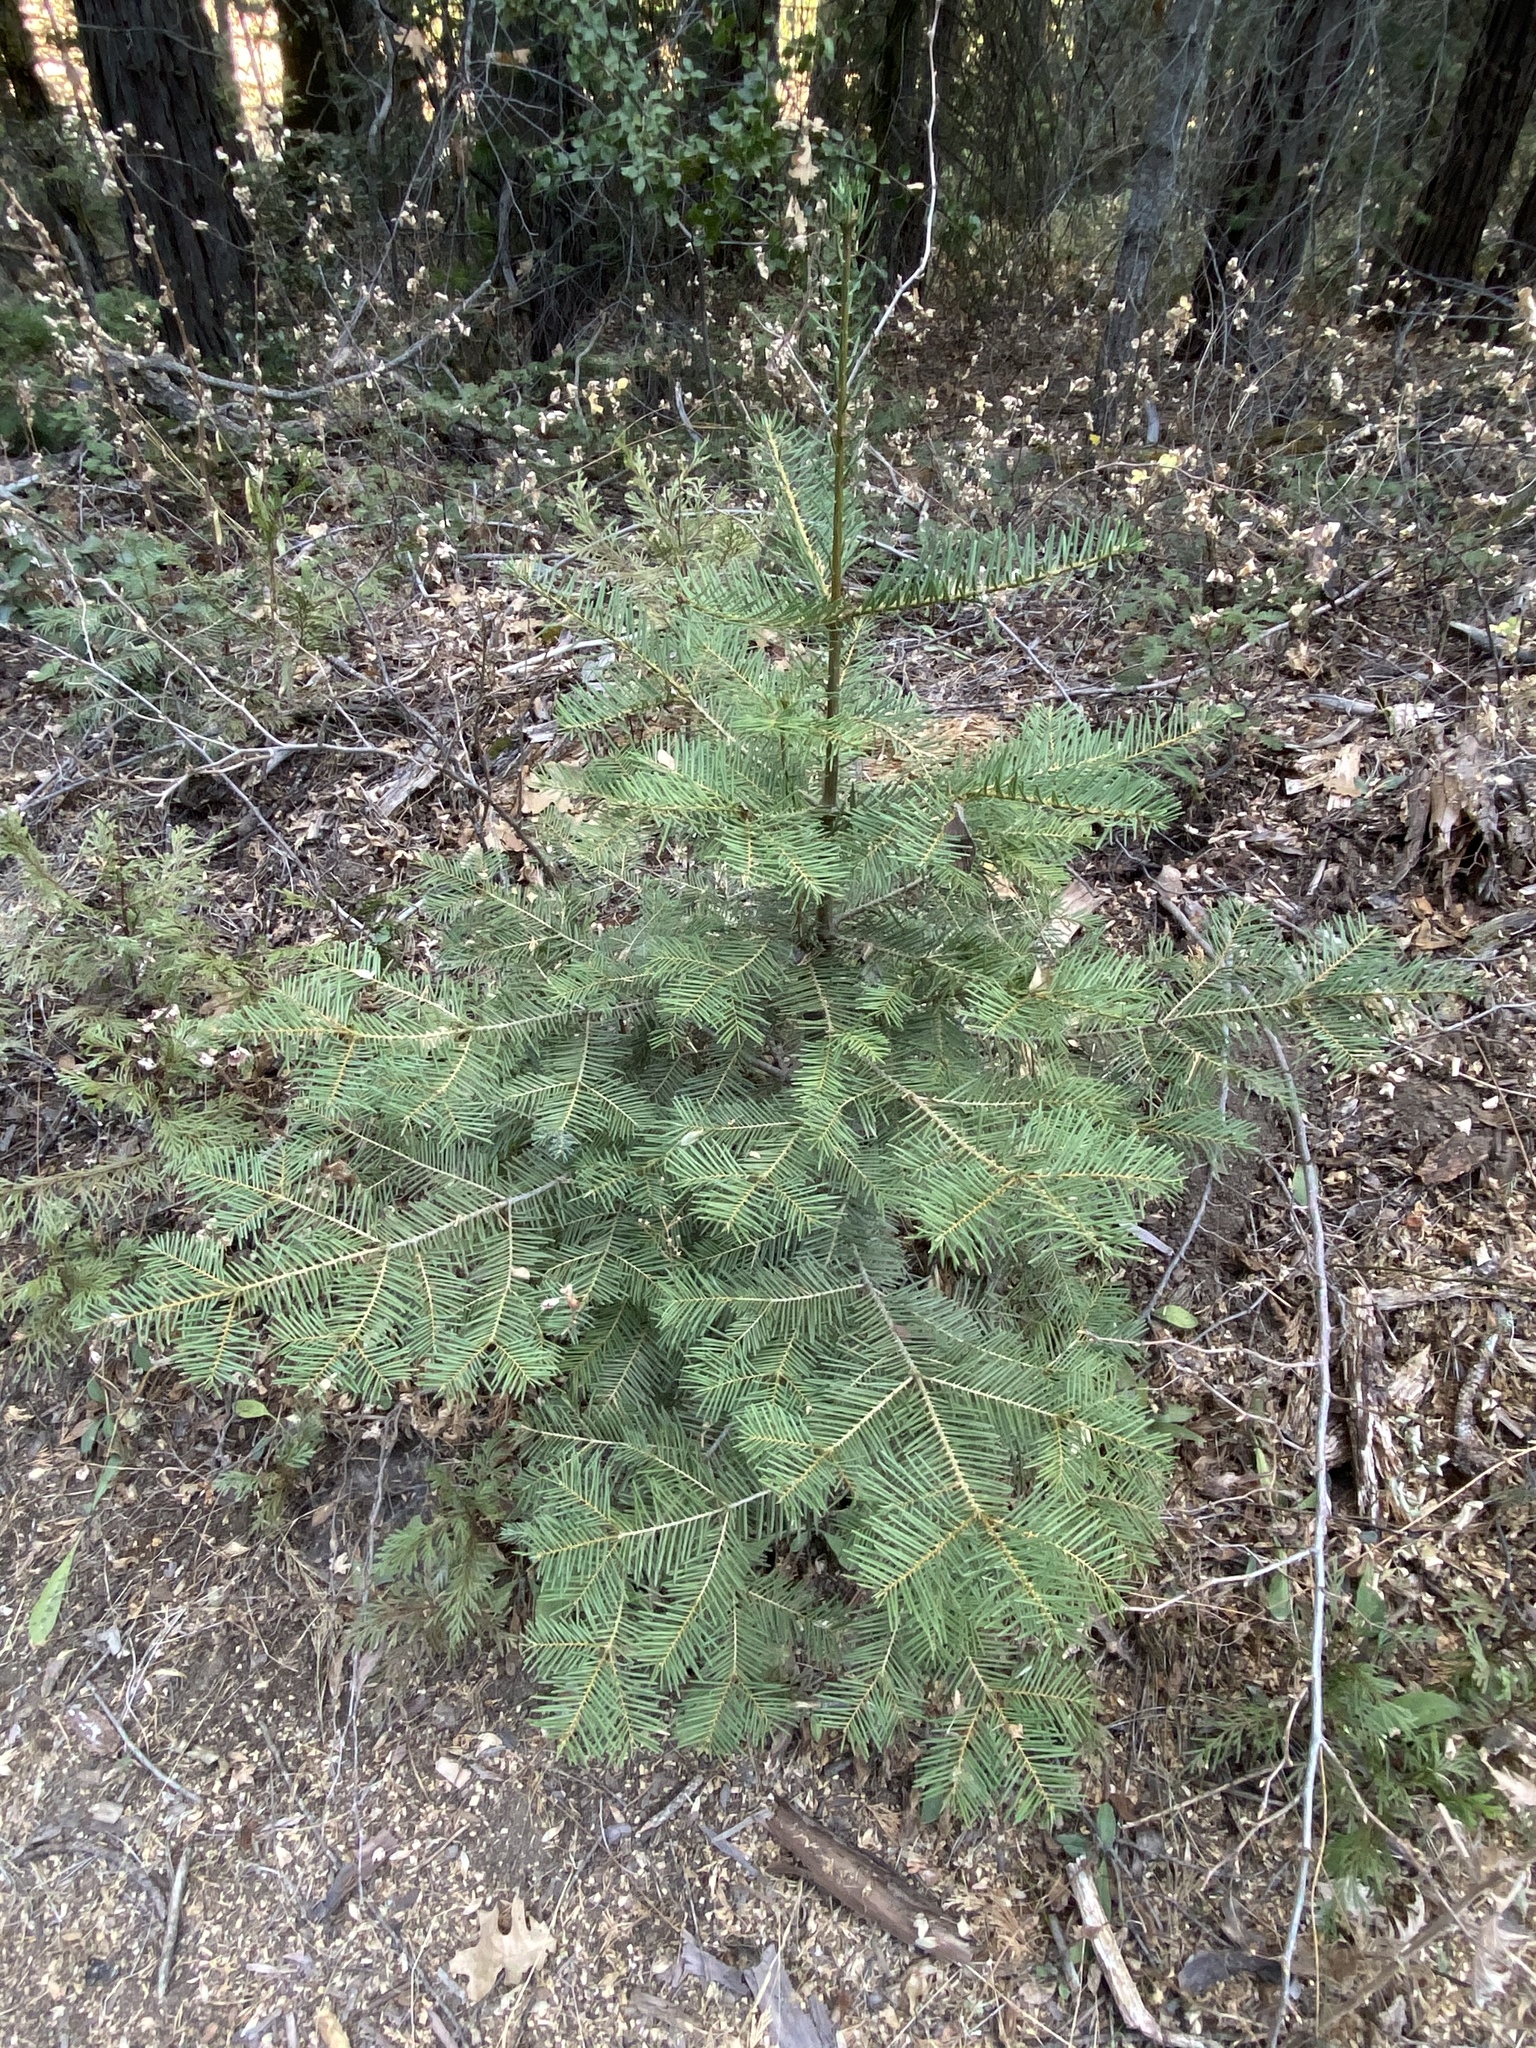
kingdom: Plantae
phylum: Tracheophyta
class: Pinopsida
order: Pinales
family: Pinaceae
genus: Abies
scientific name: Abies concolor
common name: Colorado fir
